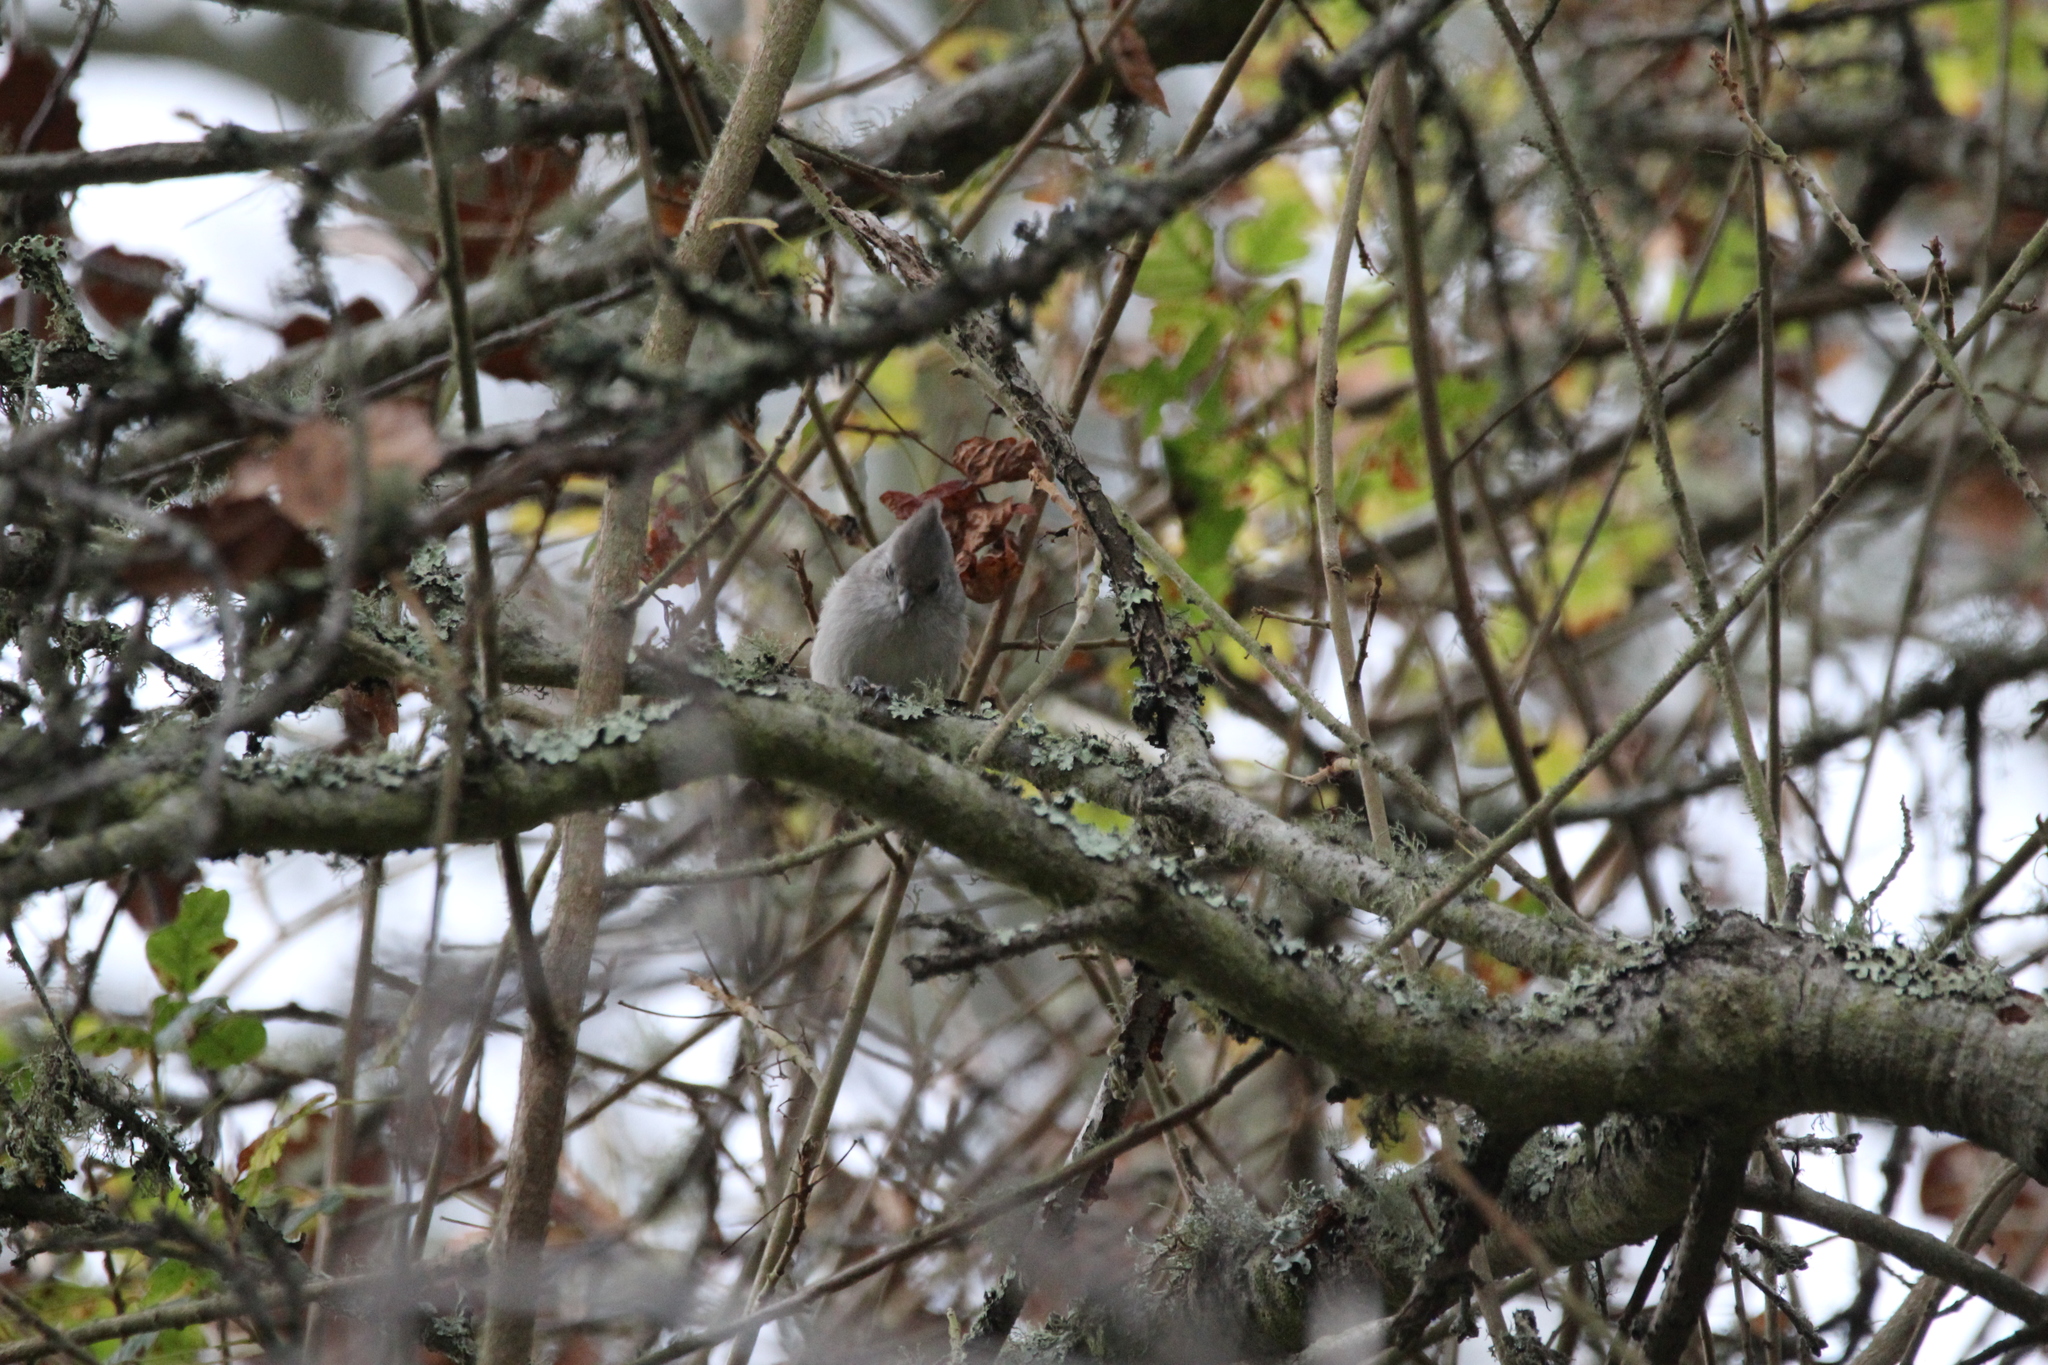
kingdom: Animalia
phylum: Chordata
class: Aves
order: Passeriformes
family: Paridae
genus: Baeolophus
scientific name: Baeolophus inornatus
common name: Oak titmouse
